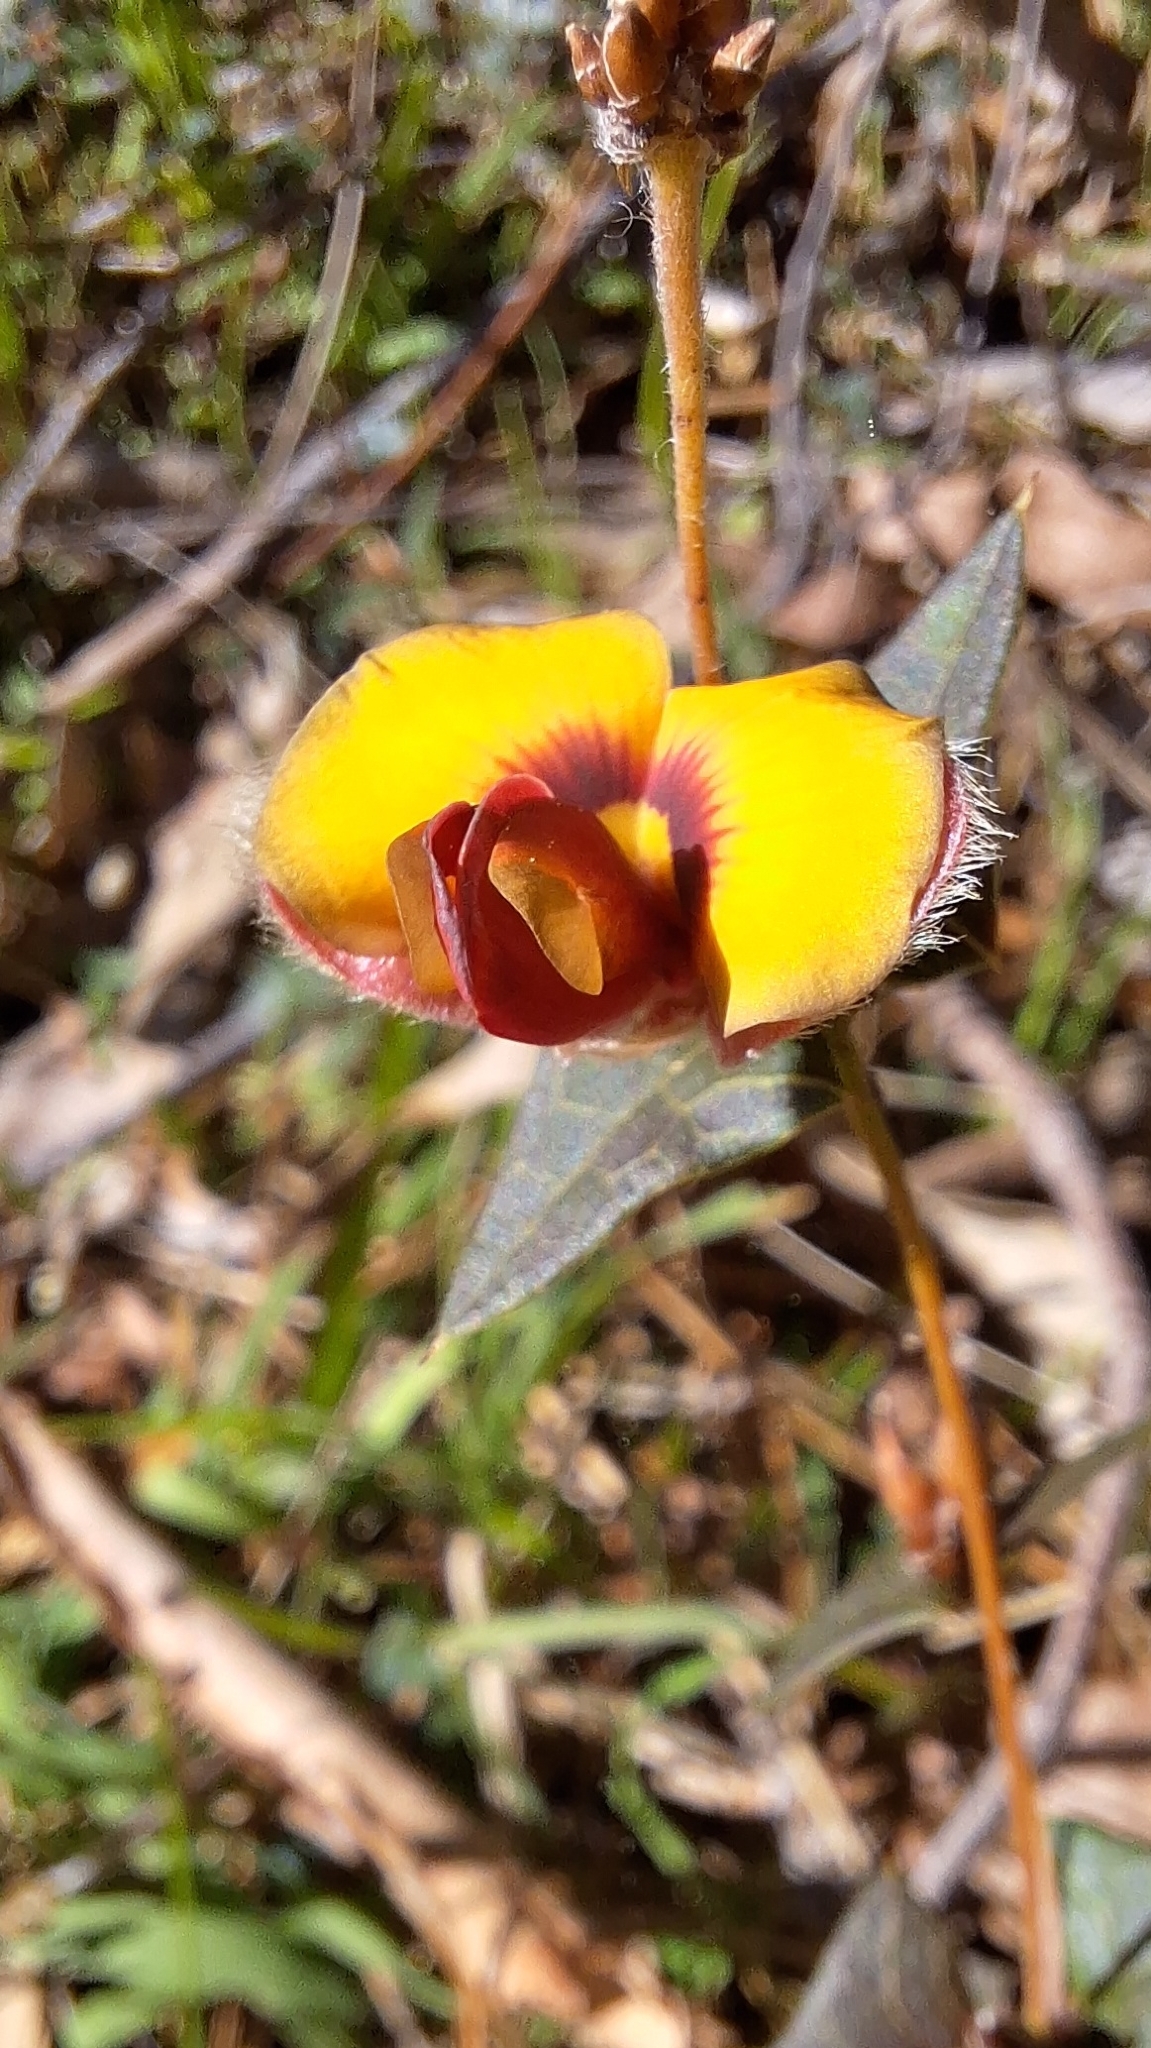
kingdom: Plantae
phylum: Tracheophyta
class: Magnoliopsida
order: Fabales
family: Fabaceae
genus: Platylobium
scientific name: Platylobium obtusangulum
